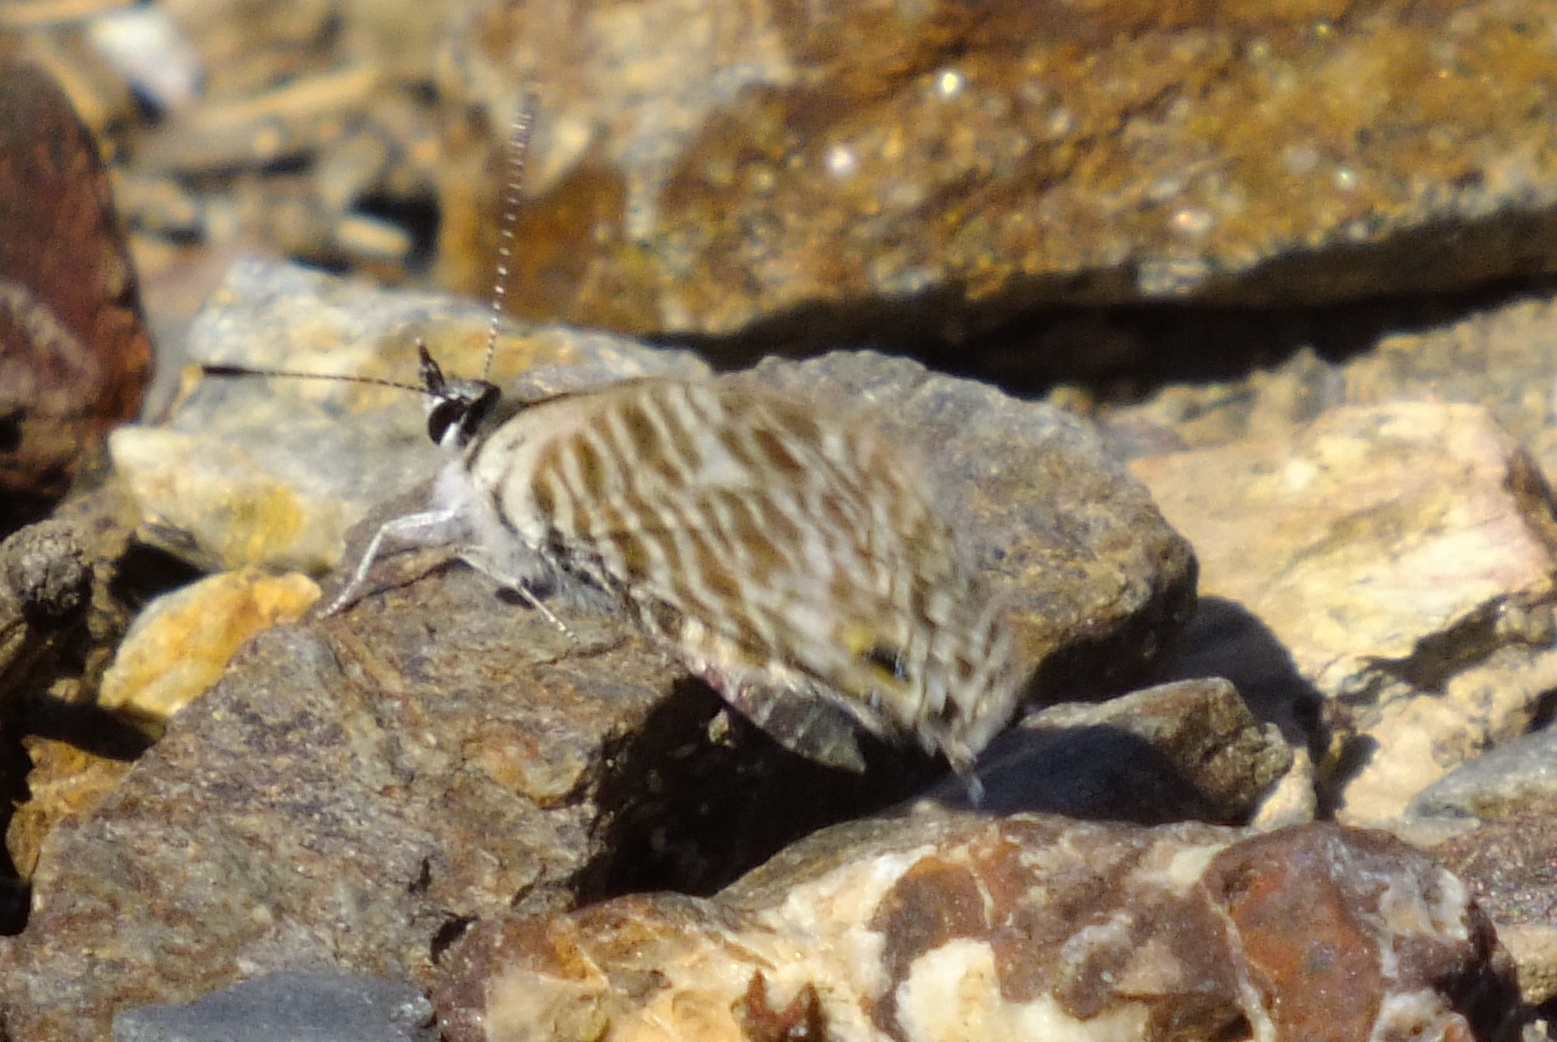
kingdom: Animalia
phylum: Arthropoda
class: Insecta
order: Lepidoptera
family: Lycaenidae
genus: Leptotes
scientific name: Leptotes pirithous
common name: Lang's short-tailed blue
